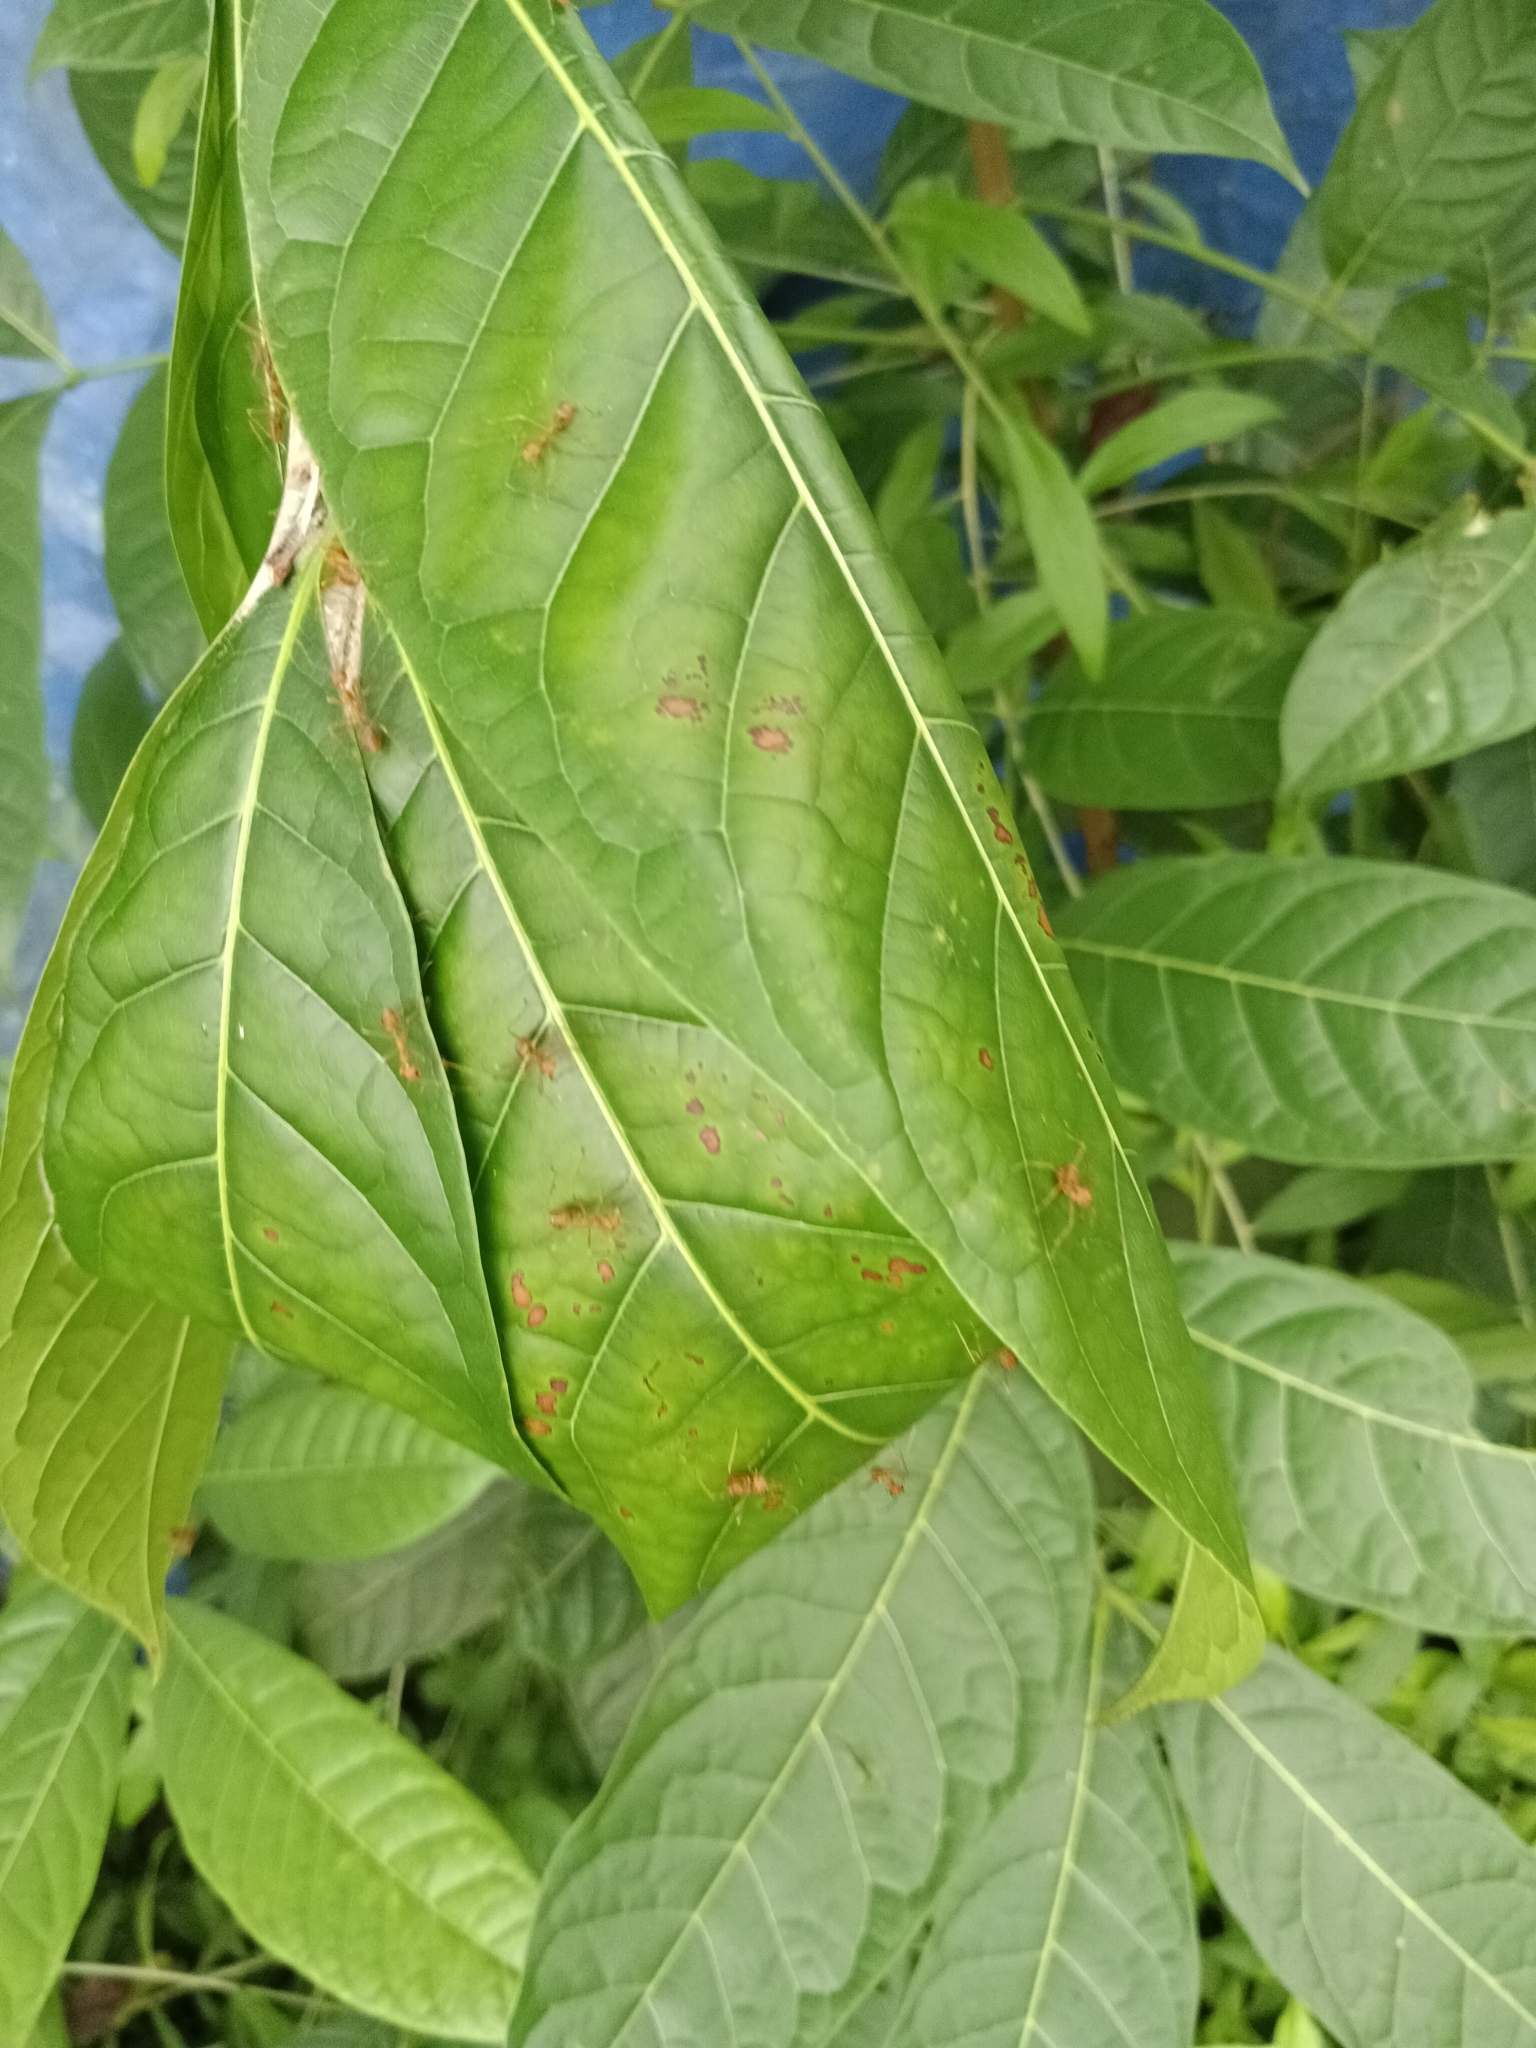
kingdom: Animalia
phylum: Arthropoda
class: Insecta
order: Hymenoptera
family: Formicidae
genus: Oecophylla
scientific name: Oecophylla smaragdina
